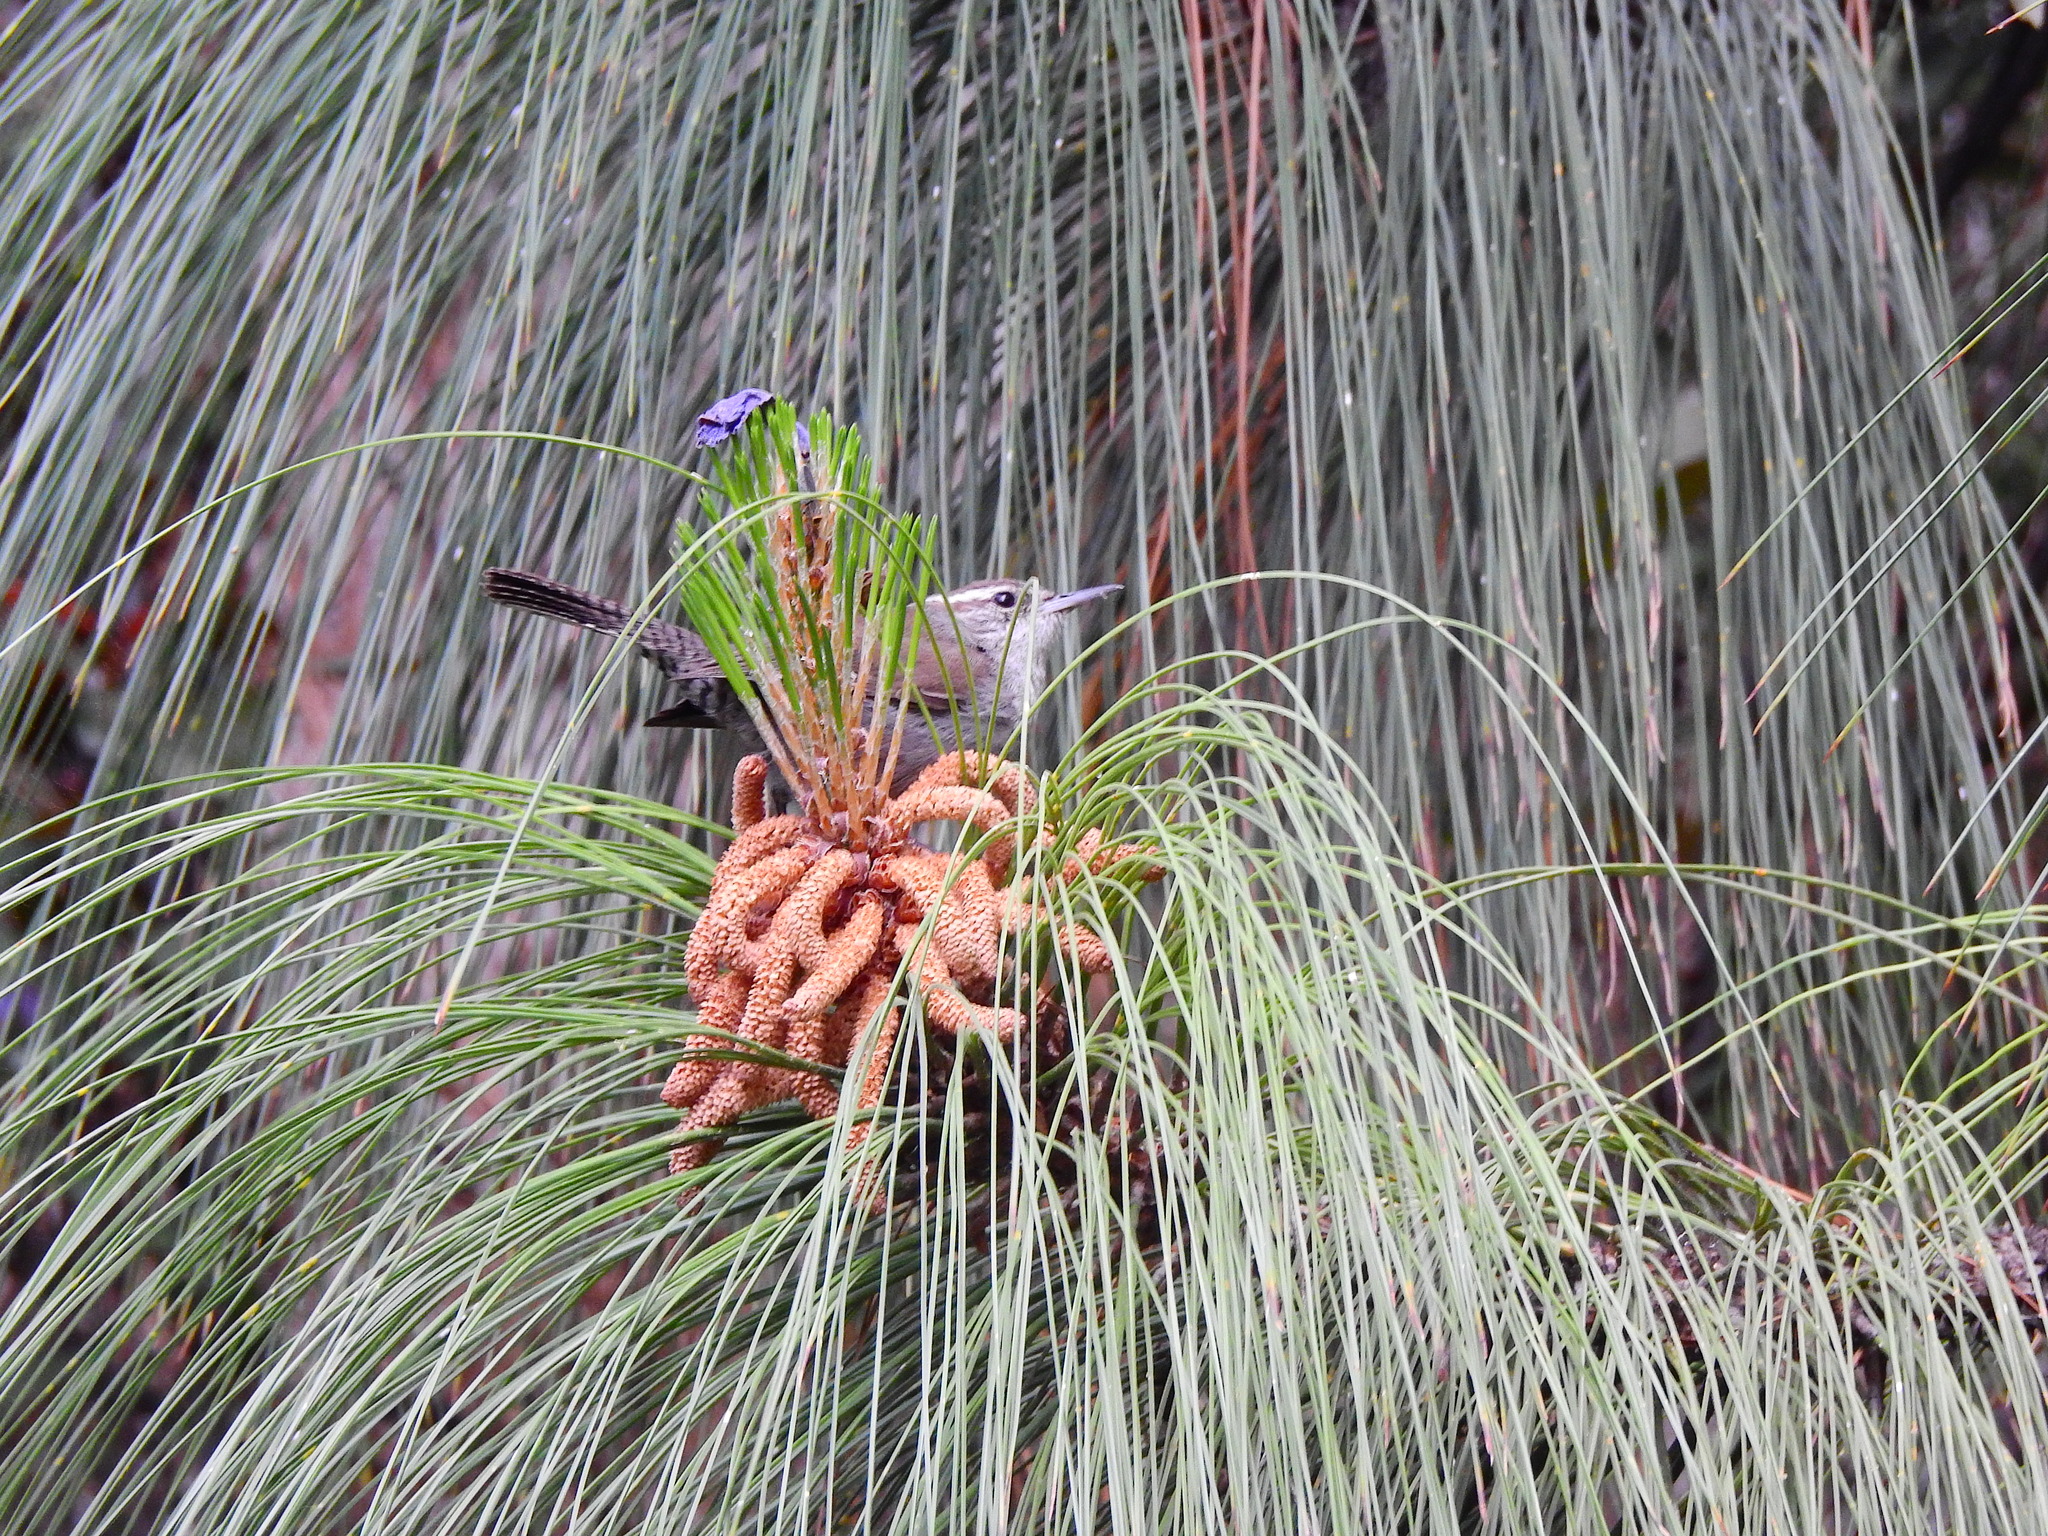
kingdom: Animalia
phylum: Chordata
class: Aves
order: Passeriformes
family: Troglodytidae
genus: Thryomanes
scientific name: Thryomanes bewickii
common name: Bewick's wren
